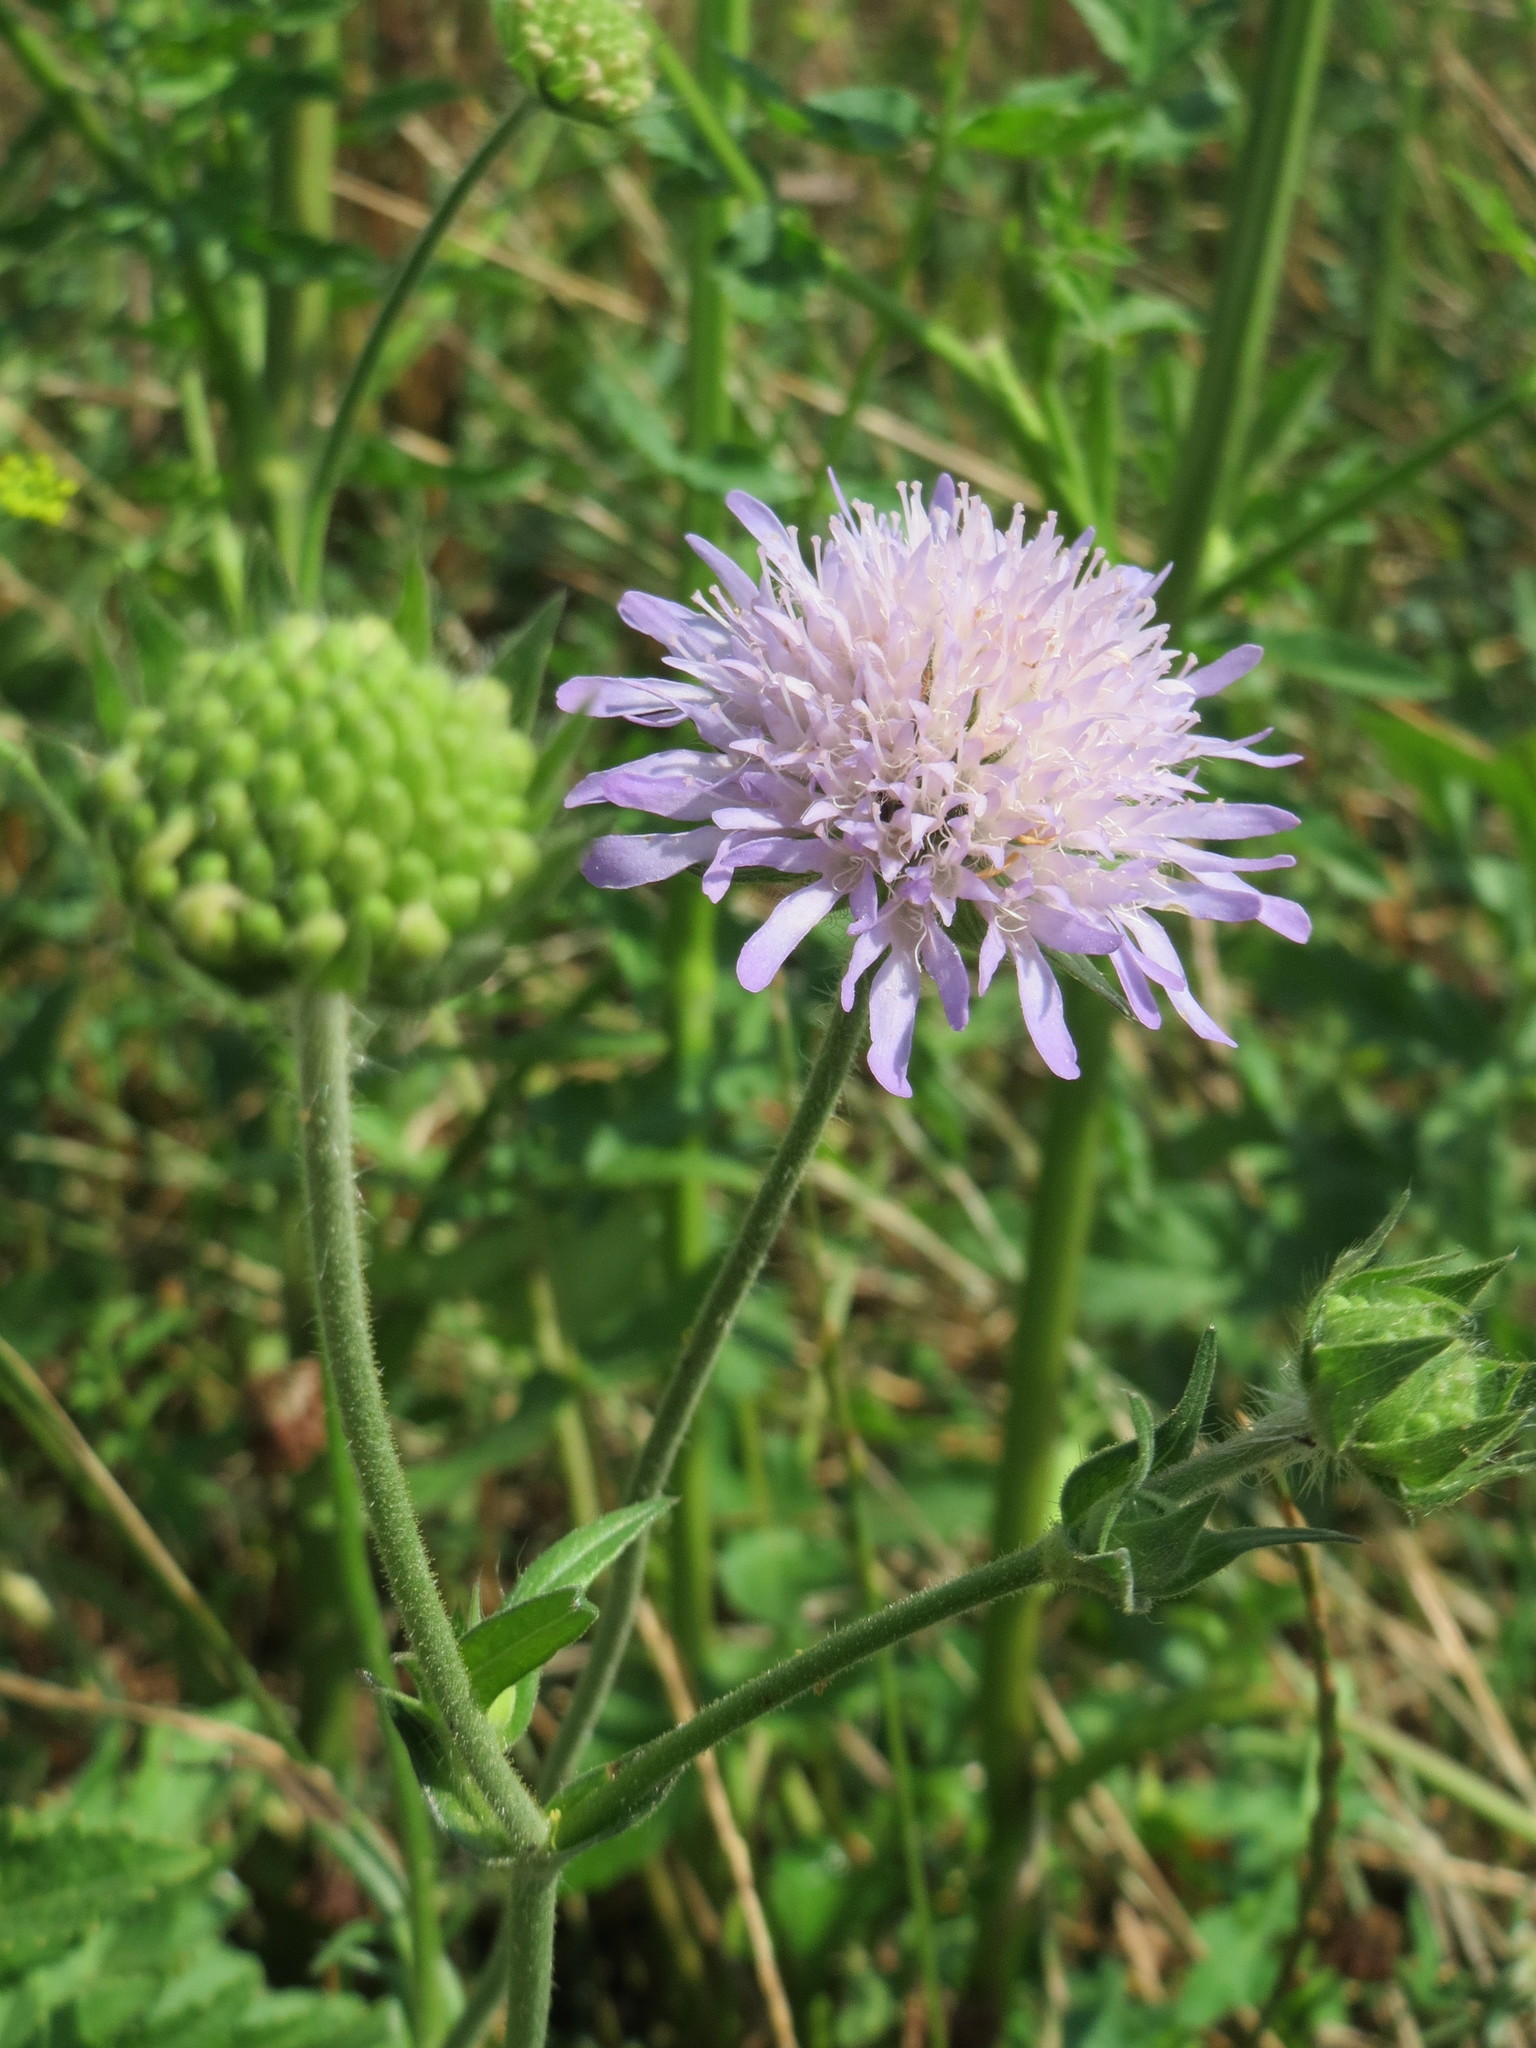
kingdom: Plantae
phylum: Tracheophyta
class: Magnoliopsida
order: Dipsacales
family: Caprifoliaceae
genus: Knautia
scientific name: Knautia arvensis
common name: Field scabiosa
